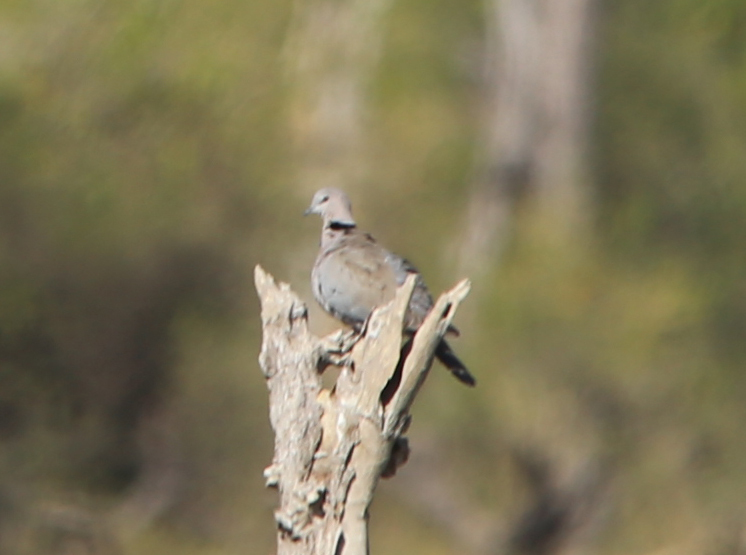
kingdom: Animalia
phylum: Chordata
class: Aves
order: Columbiformes
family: Columbidae
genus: Streptopelia
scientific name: Streptopelia capicola
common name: Ring-necked dove
